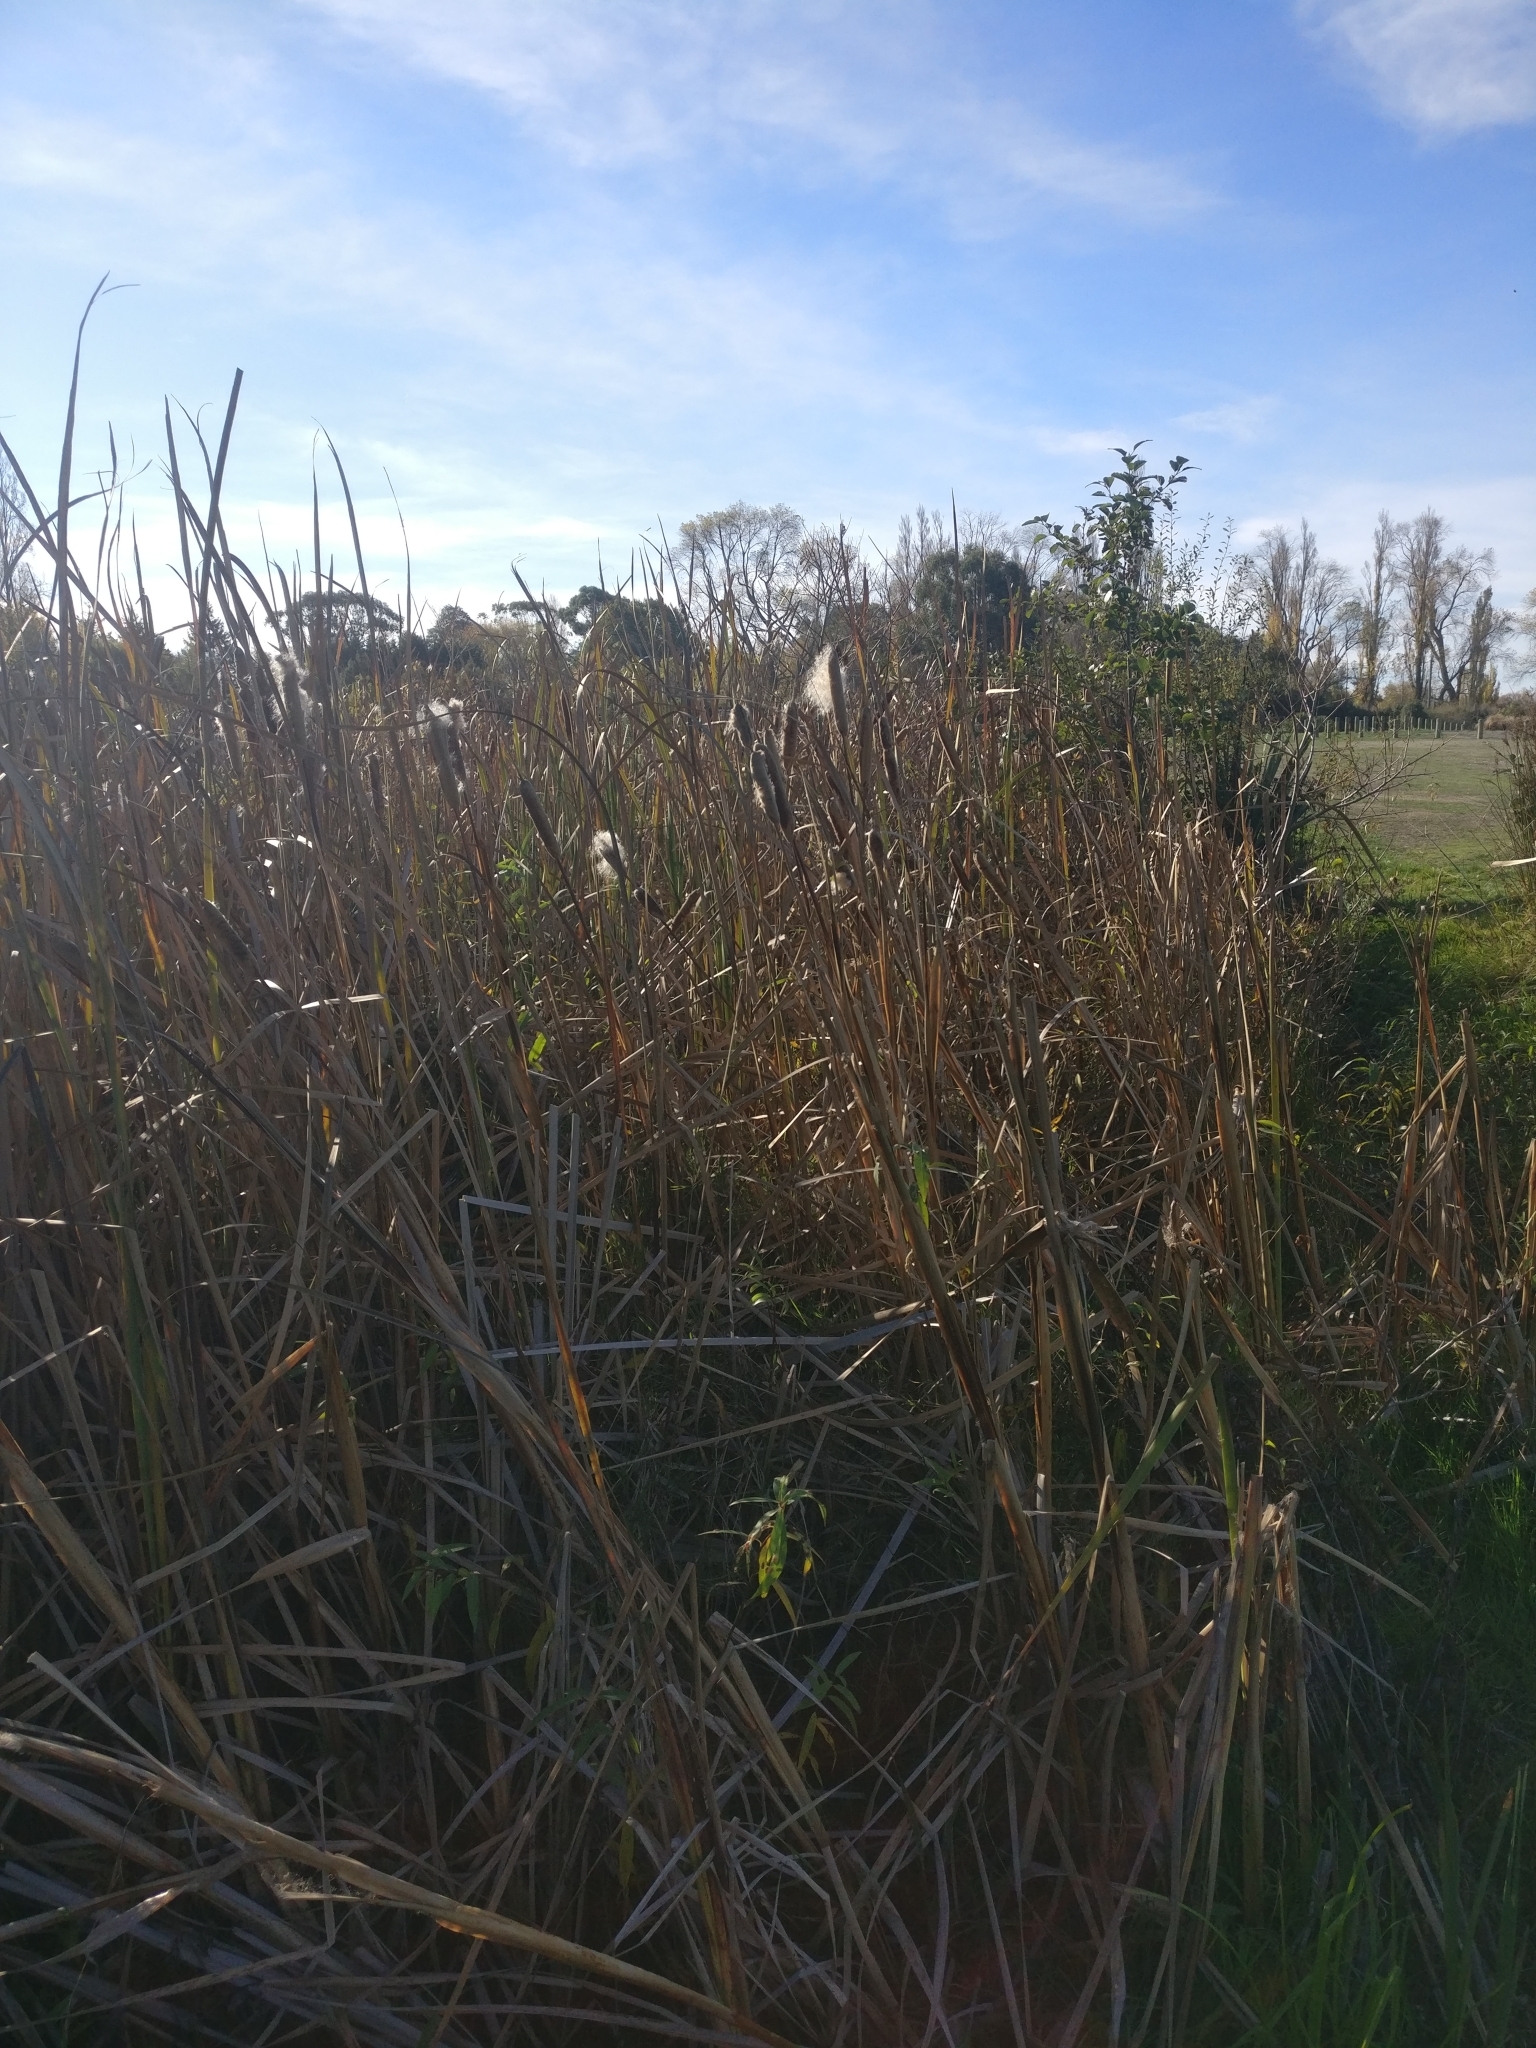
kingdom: Plantae
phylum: Tracheophyta
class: Liliopsida
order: Poales
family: Typhaceae
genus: Typha
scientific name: Typha orientalis
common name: Bullrush
